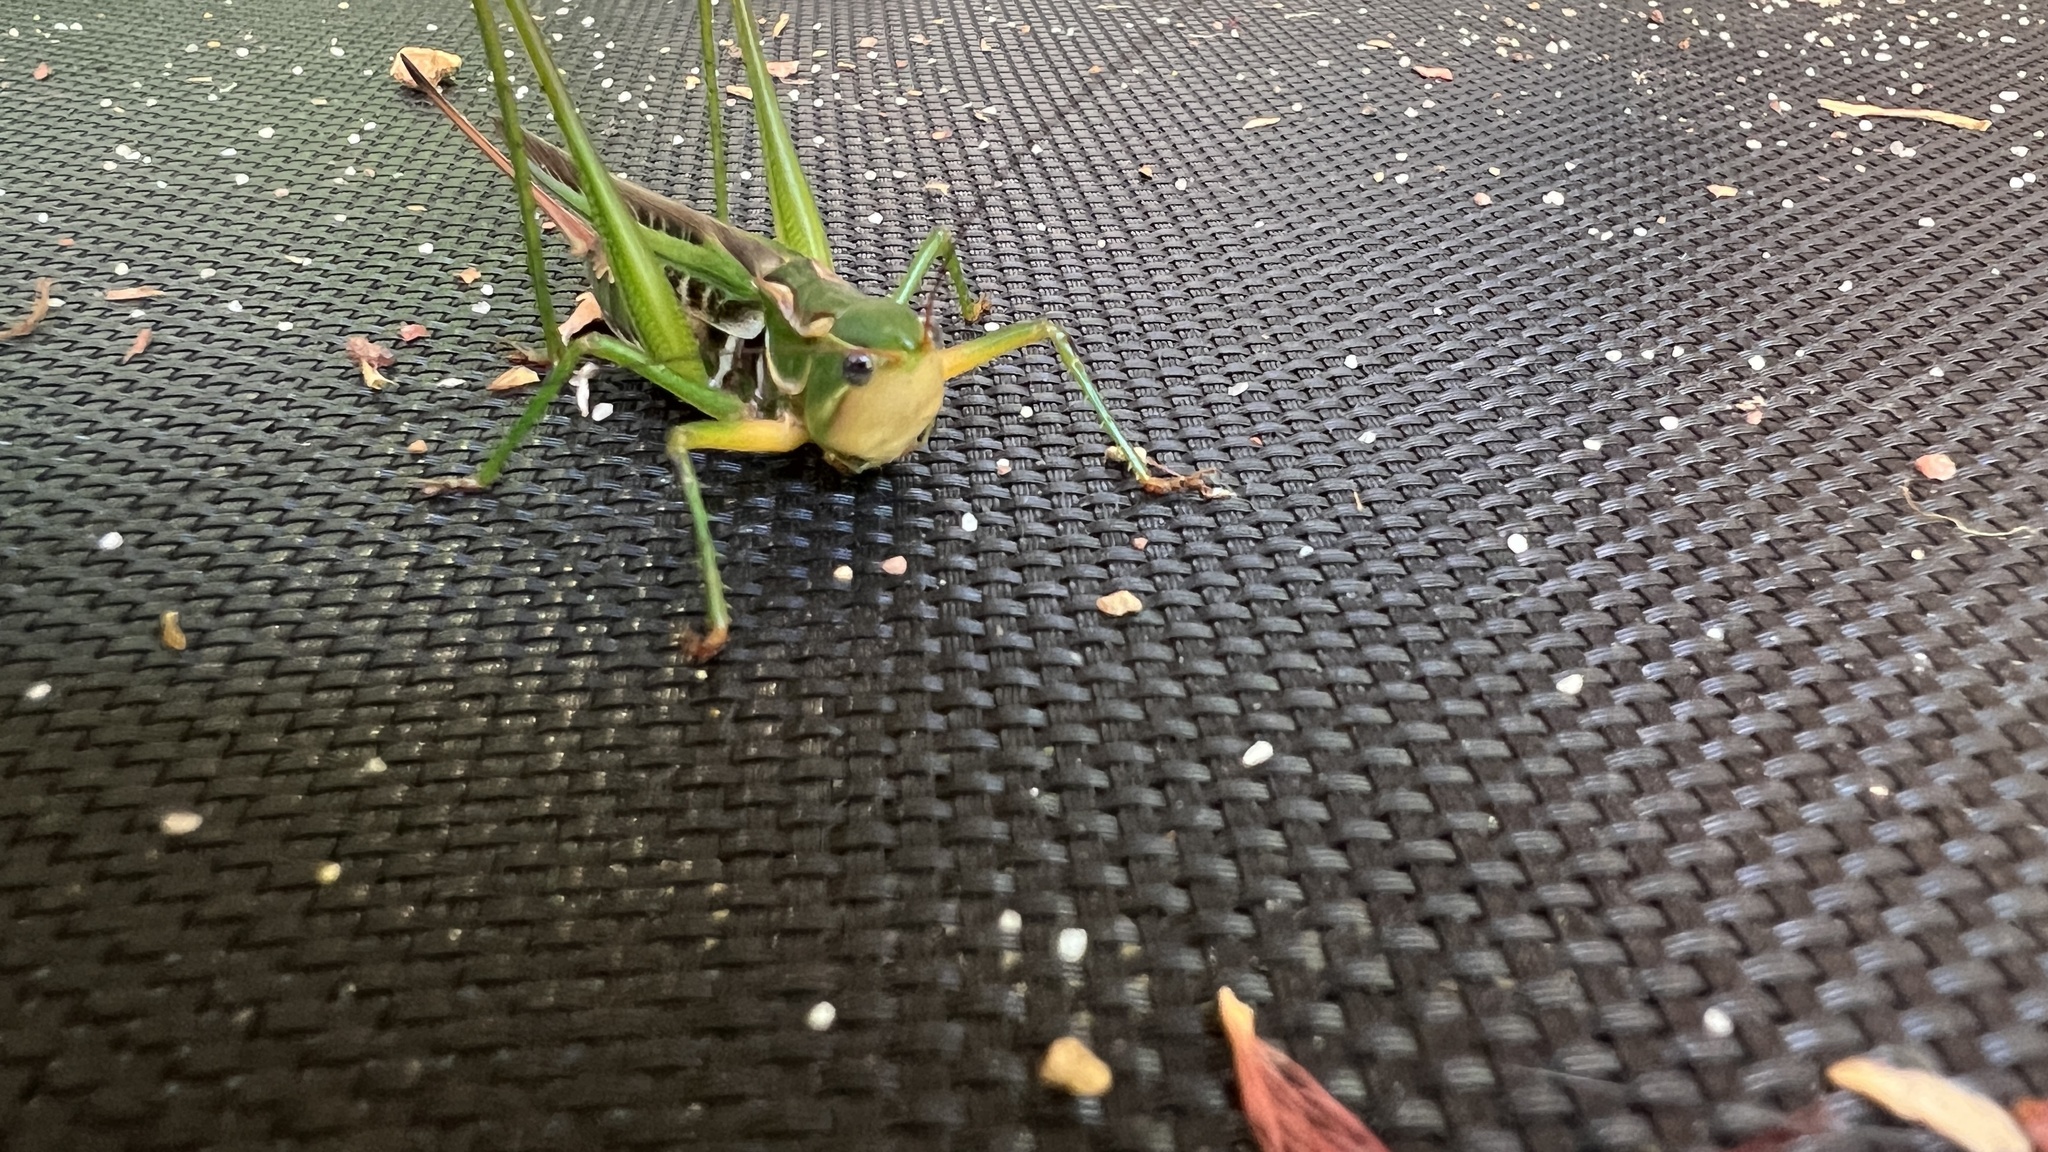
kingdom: Animalia
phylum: Arthropoda
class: Insecta
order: Orthoptera
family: Tettigoniidae
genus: Metaballus
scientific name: Metaballus frontalis
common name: Common marauding katydid
